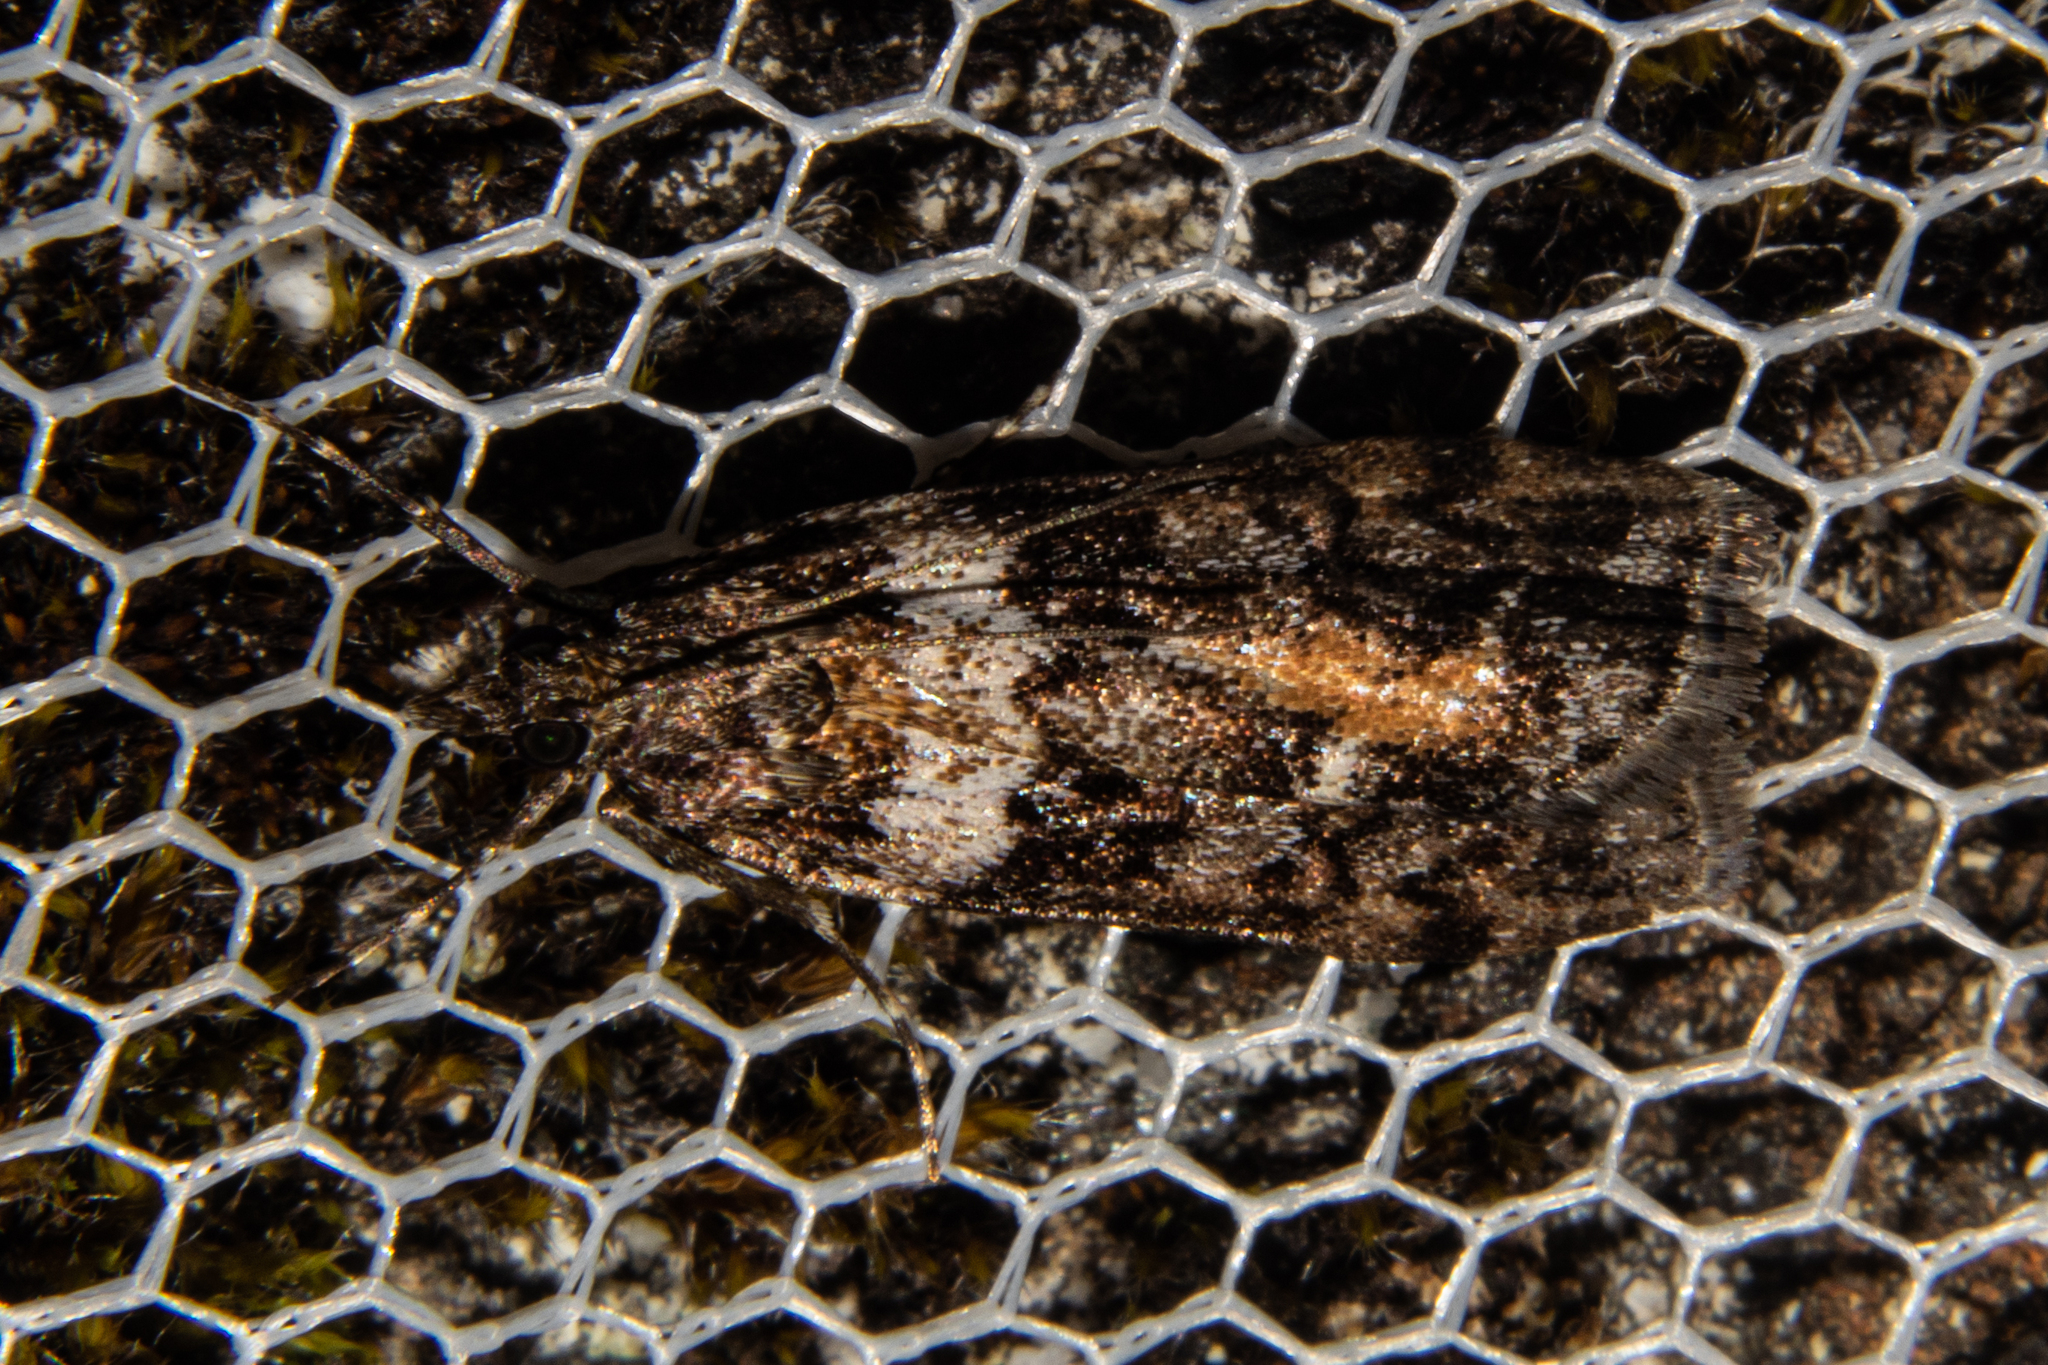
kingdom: Animalia
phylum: Arthropoda
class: Insecta
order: Lepidoptera
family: Crambidae
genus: Eudonia
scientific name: Eudonia submarginalis
